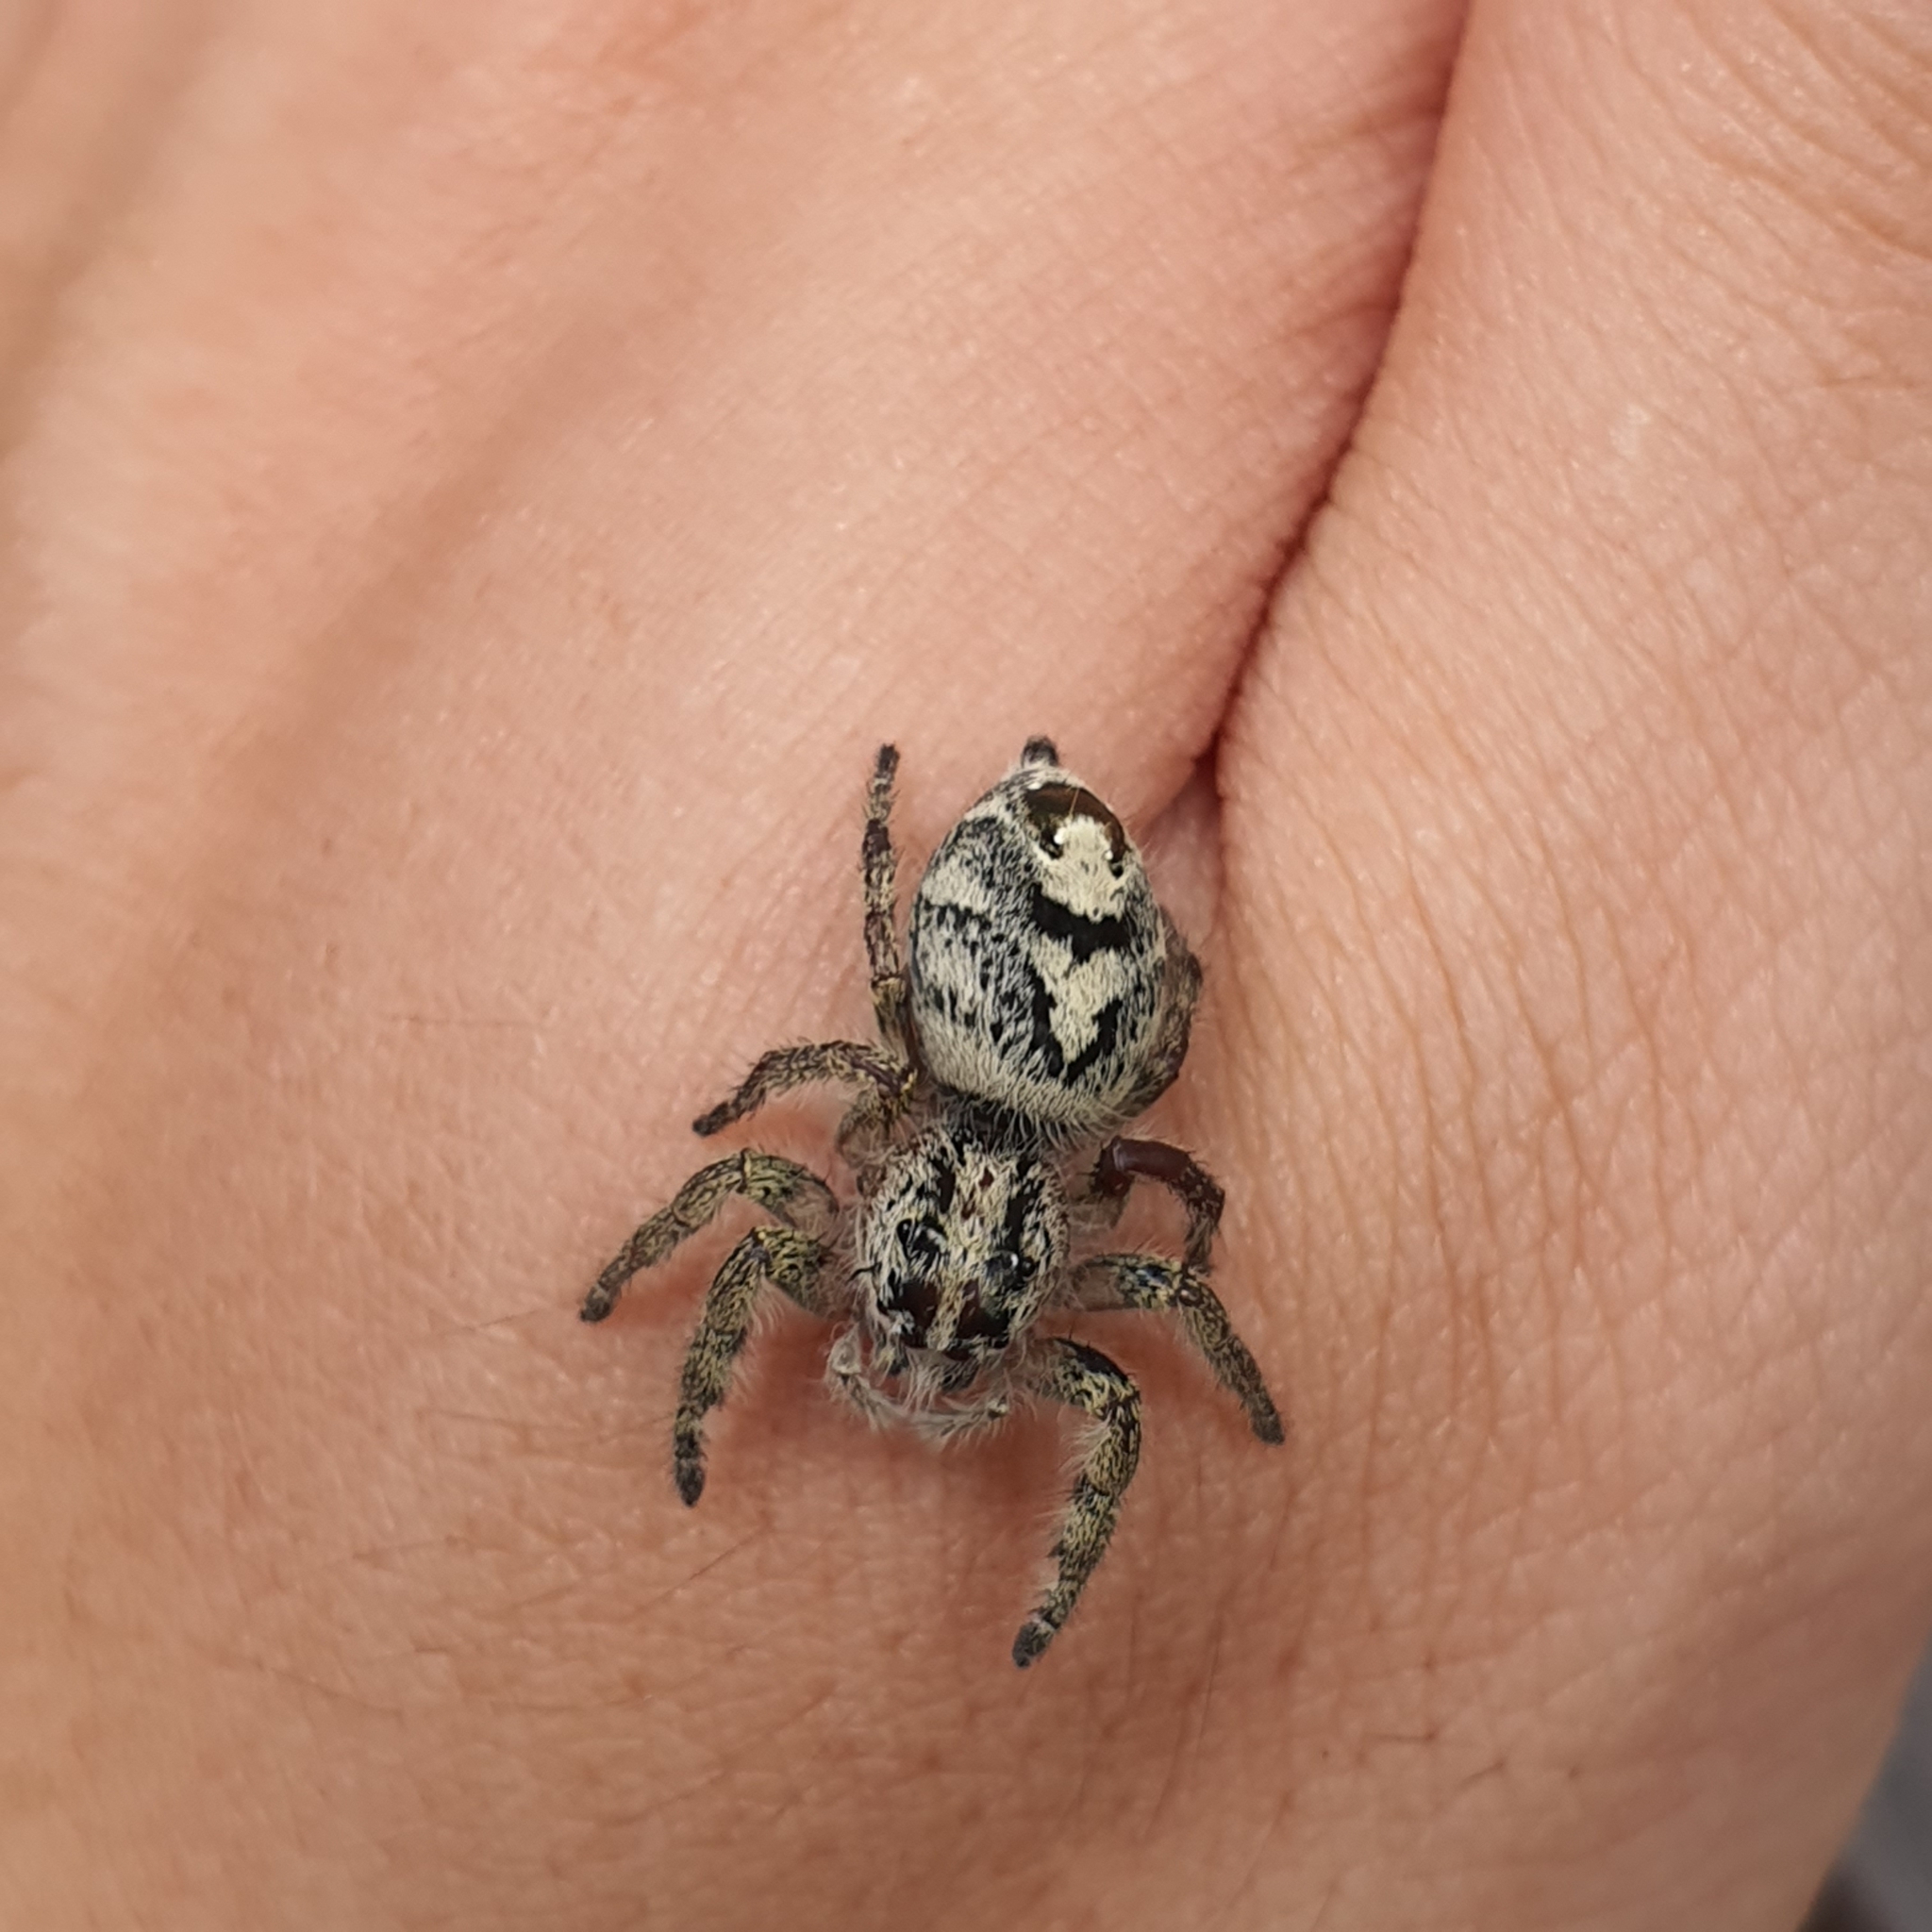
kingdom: Animalia
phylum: Arthropoda
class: Arachnida
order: Araneae
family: Salticidae
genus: Hyllus
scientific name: Hyllus diardi
